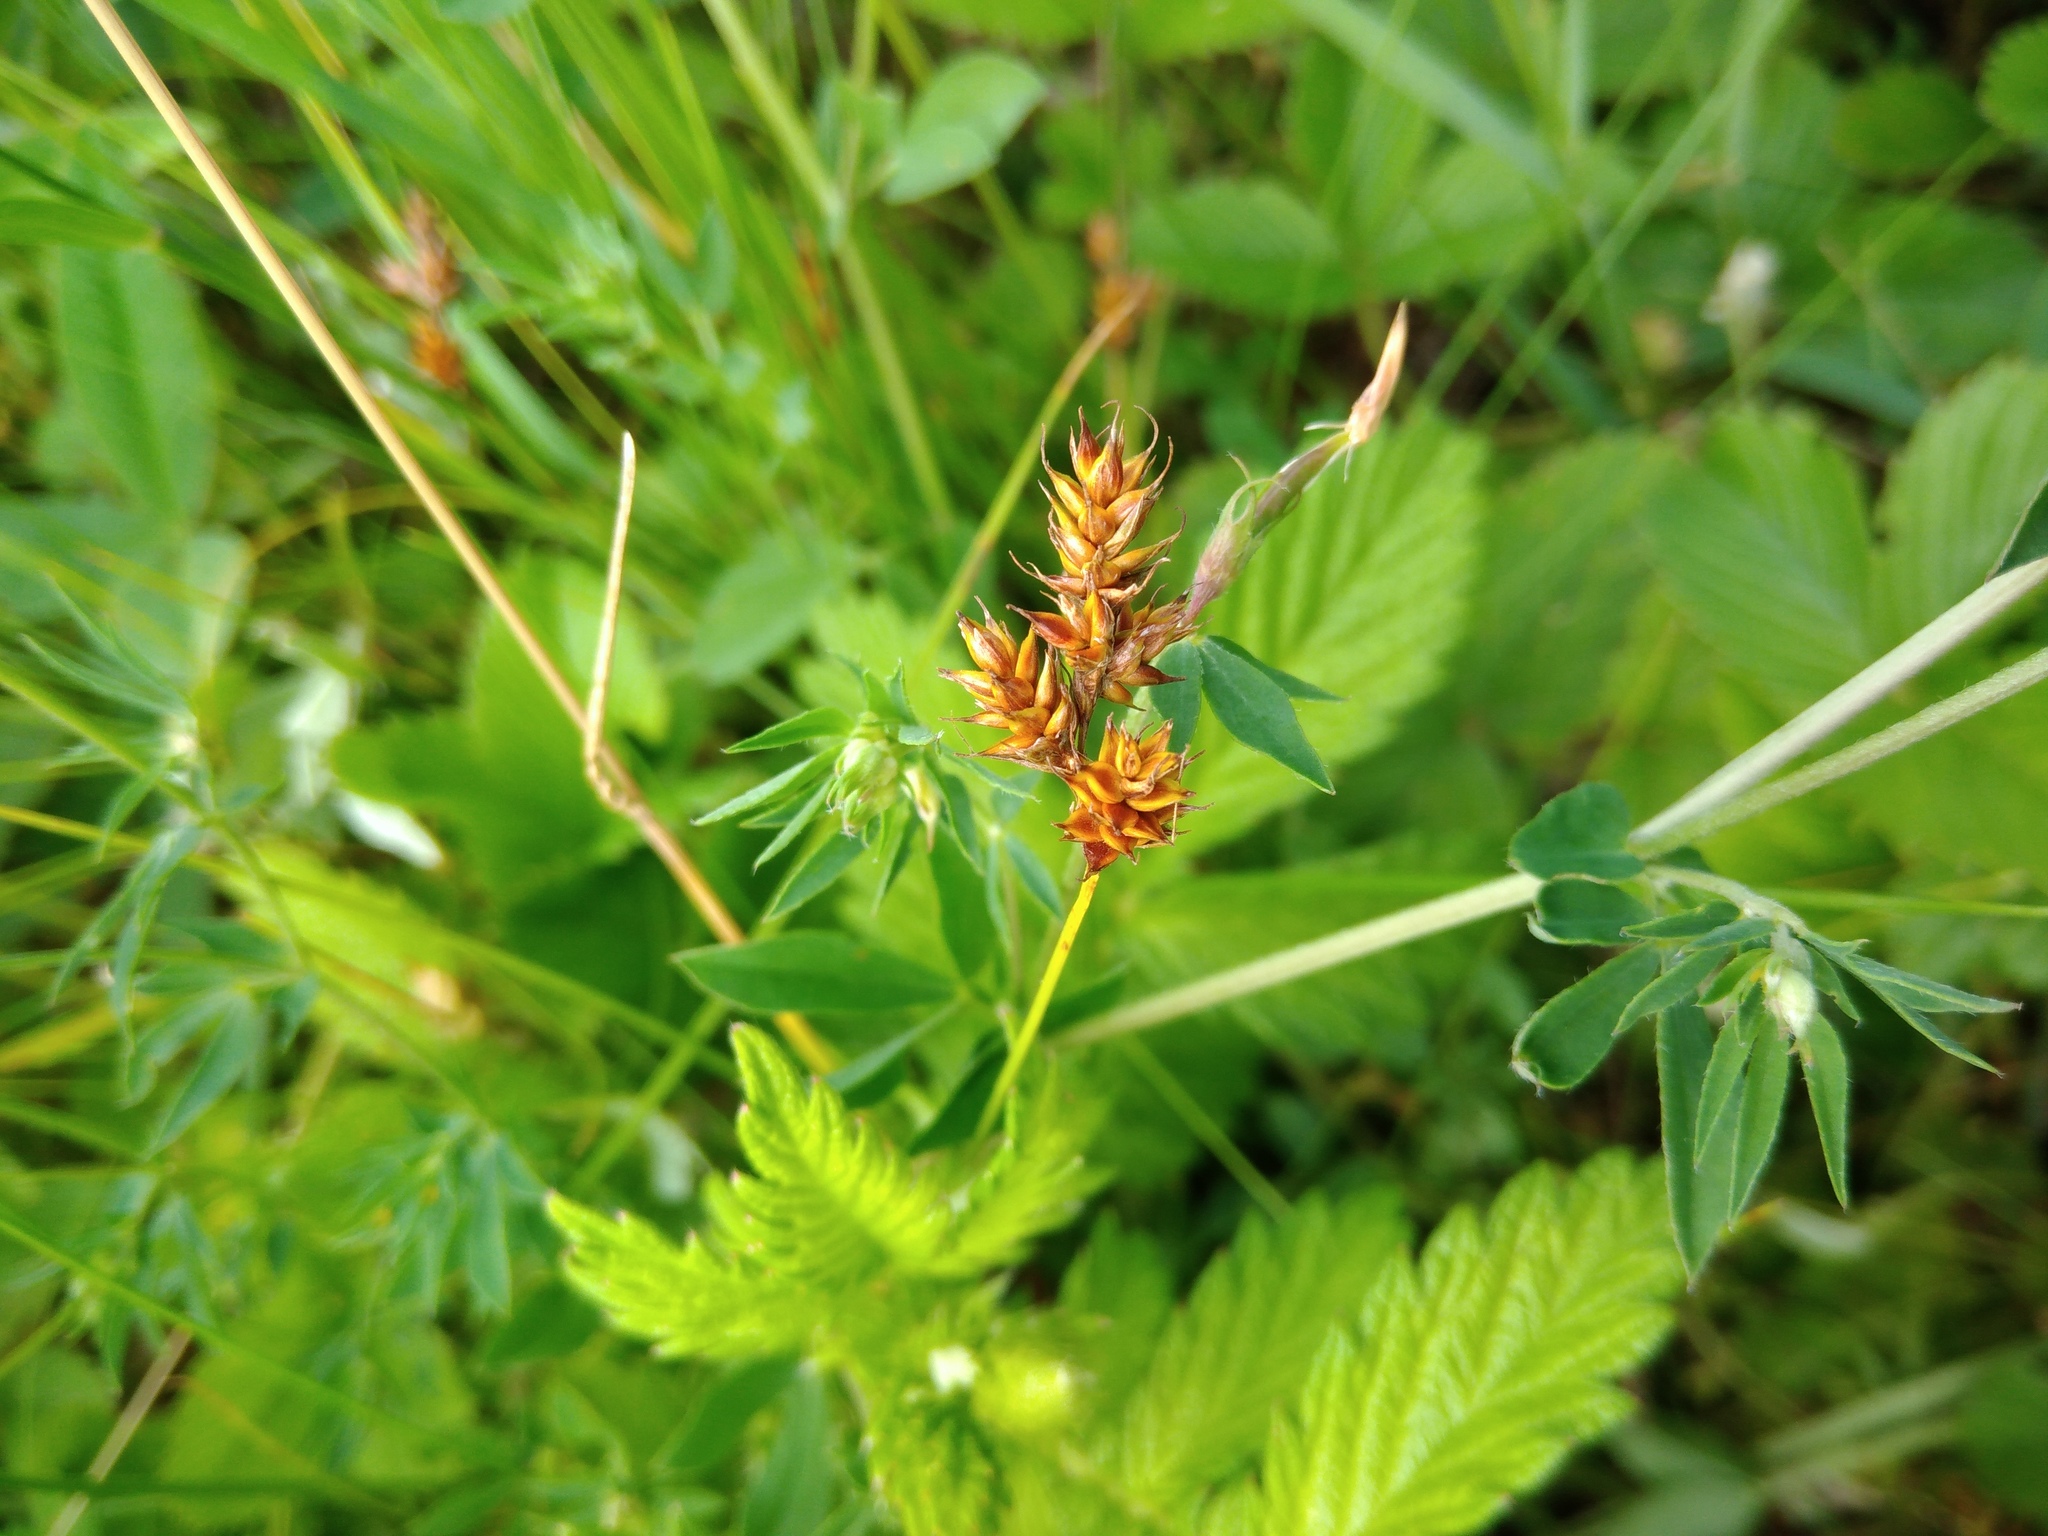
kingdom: Plantae
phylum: Tracheophyta
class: Liliopsida
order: Poales
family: Cyperaceae
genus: Carex
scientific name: Carex praecox
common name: Early sedge
